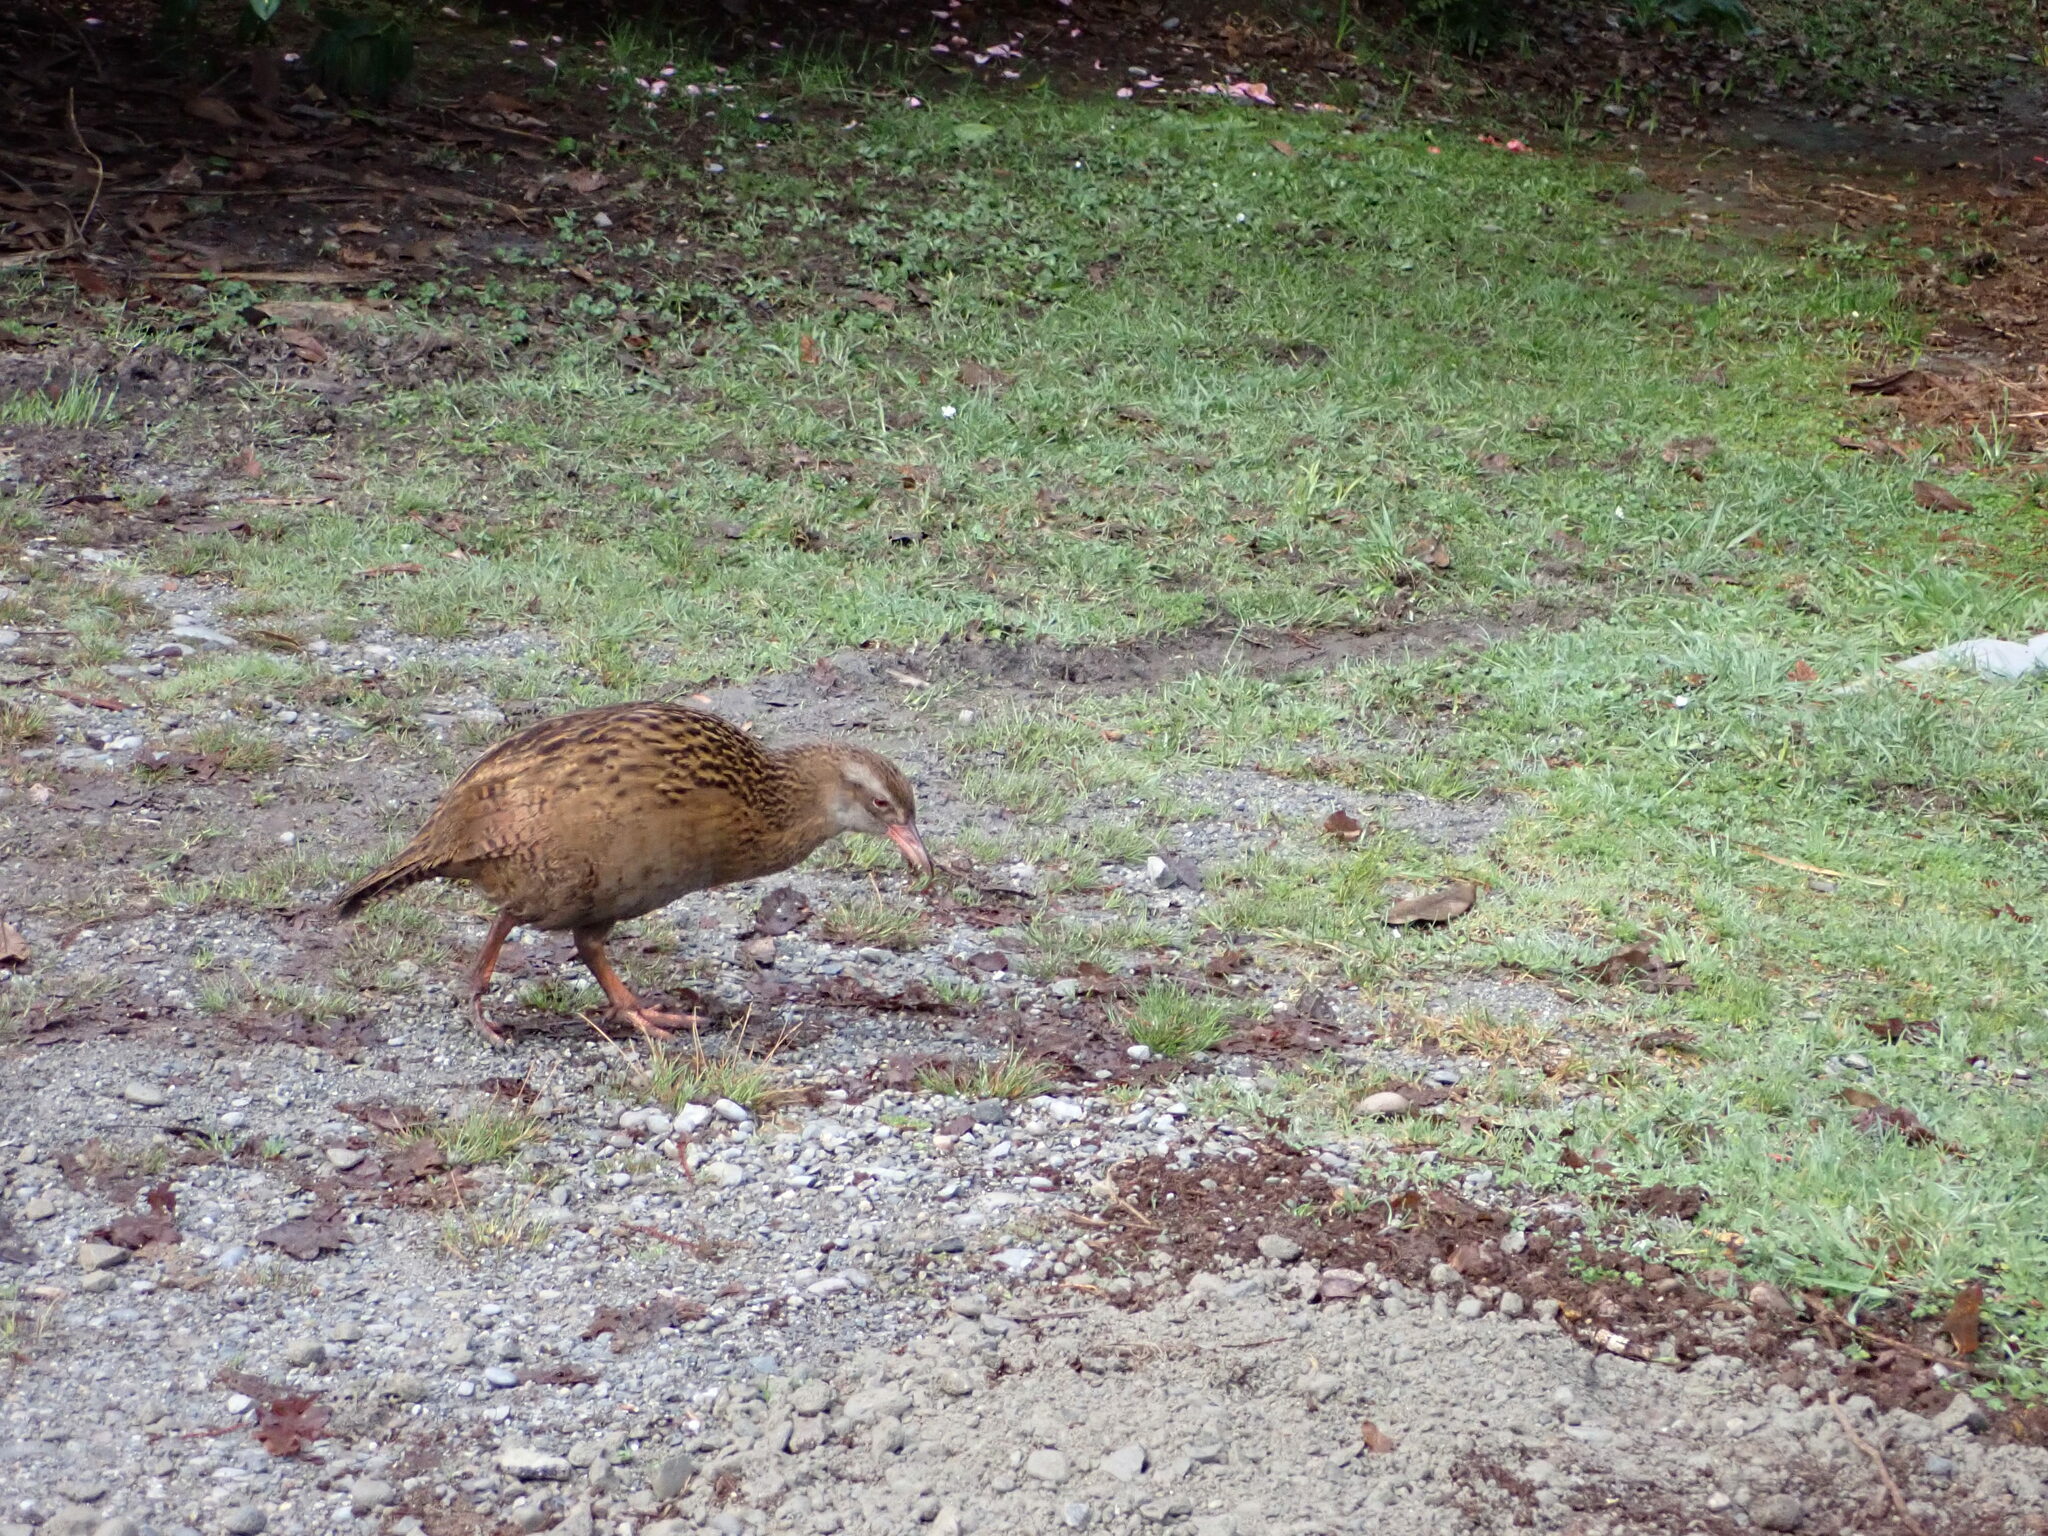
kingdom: Animalia
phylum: Chordata
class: Aves
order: Gruiformes
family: Rallidae
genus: Gallirallus
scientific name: Gallirallus australis
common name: Weka
